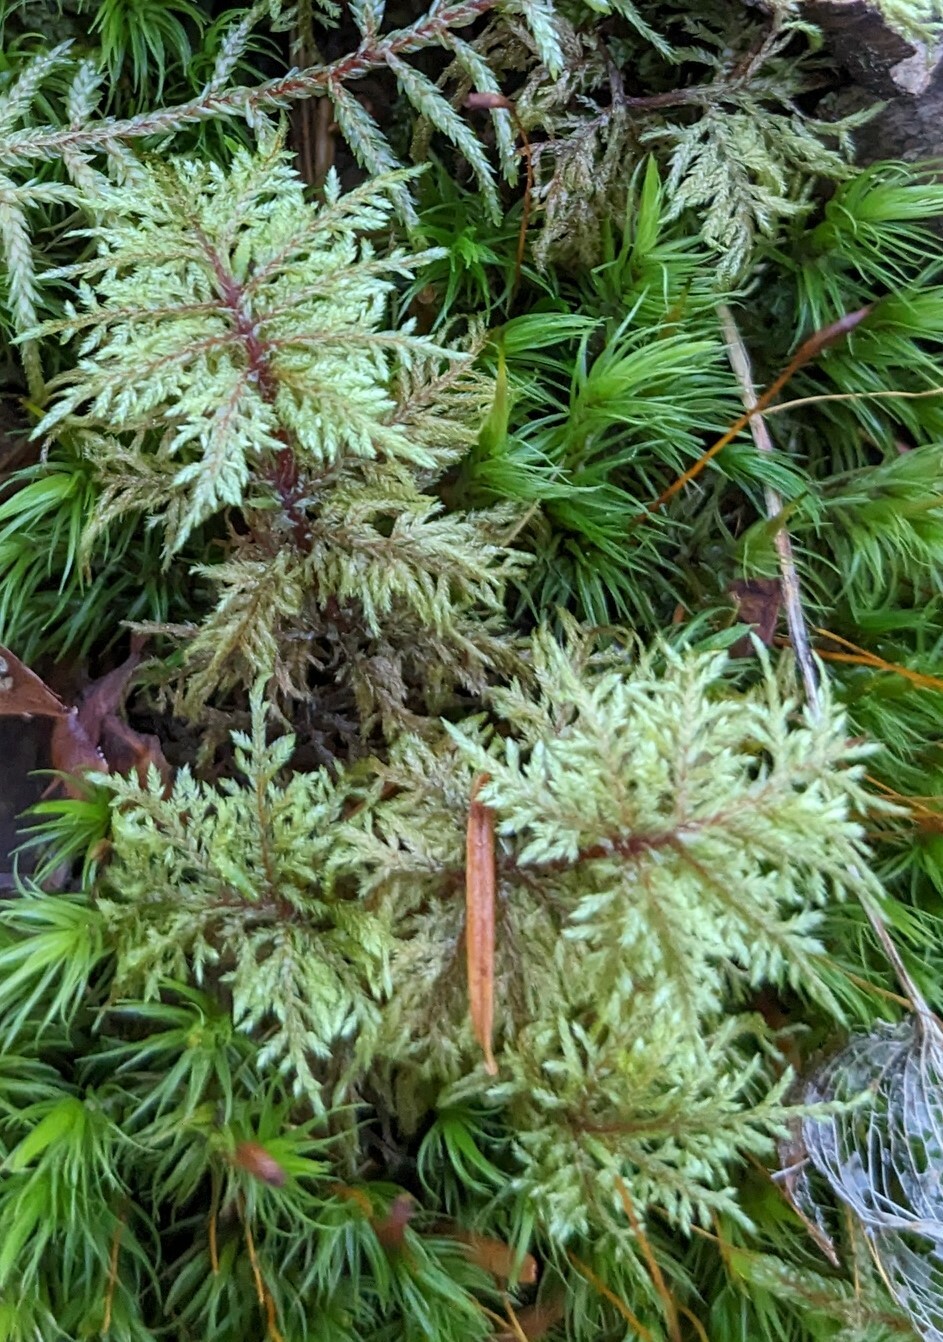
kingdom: Plantae
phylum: Bryophyta
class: Bryopsida
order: Hypnales
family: Hylocomiaceae
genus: Hylocomium
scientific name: Hylocomium splendens
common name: Stairstep moss
